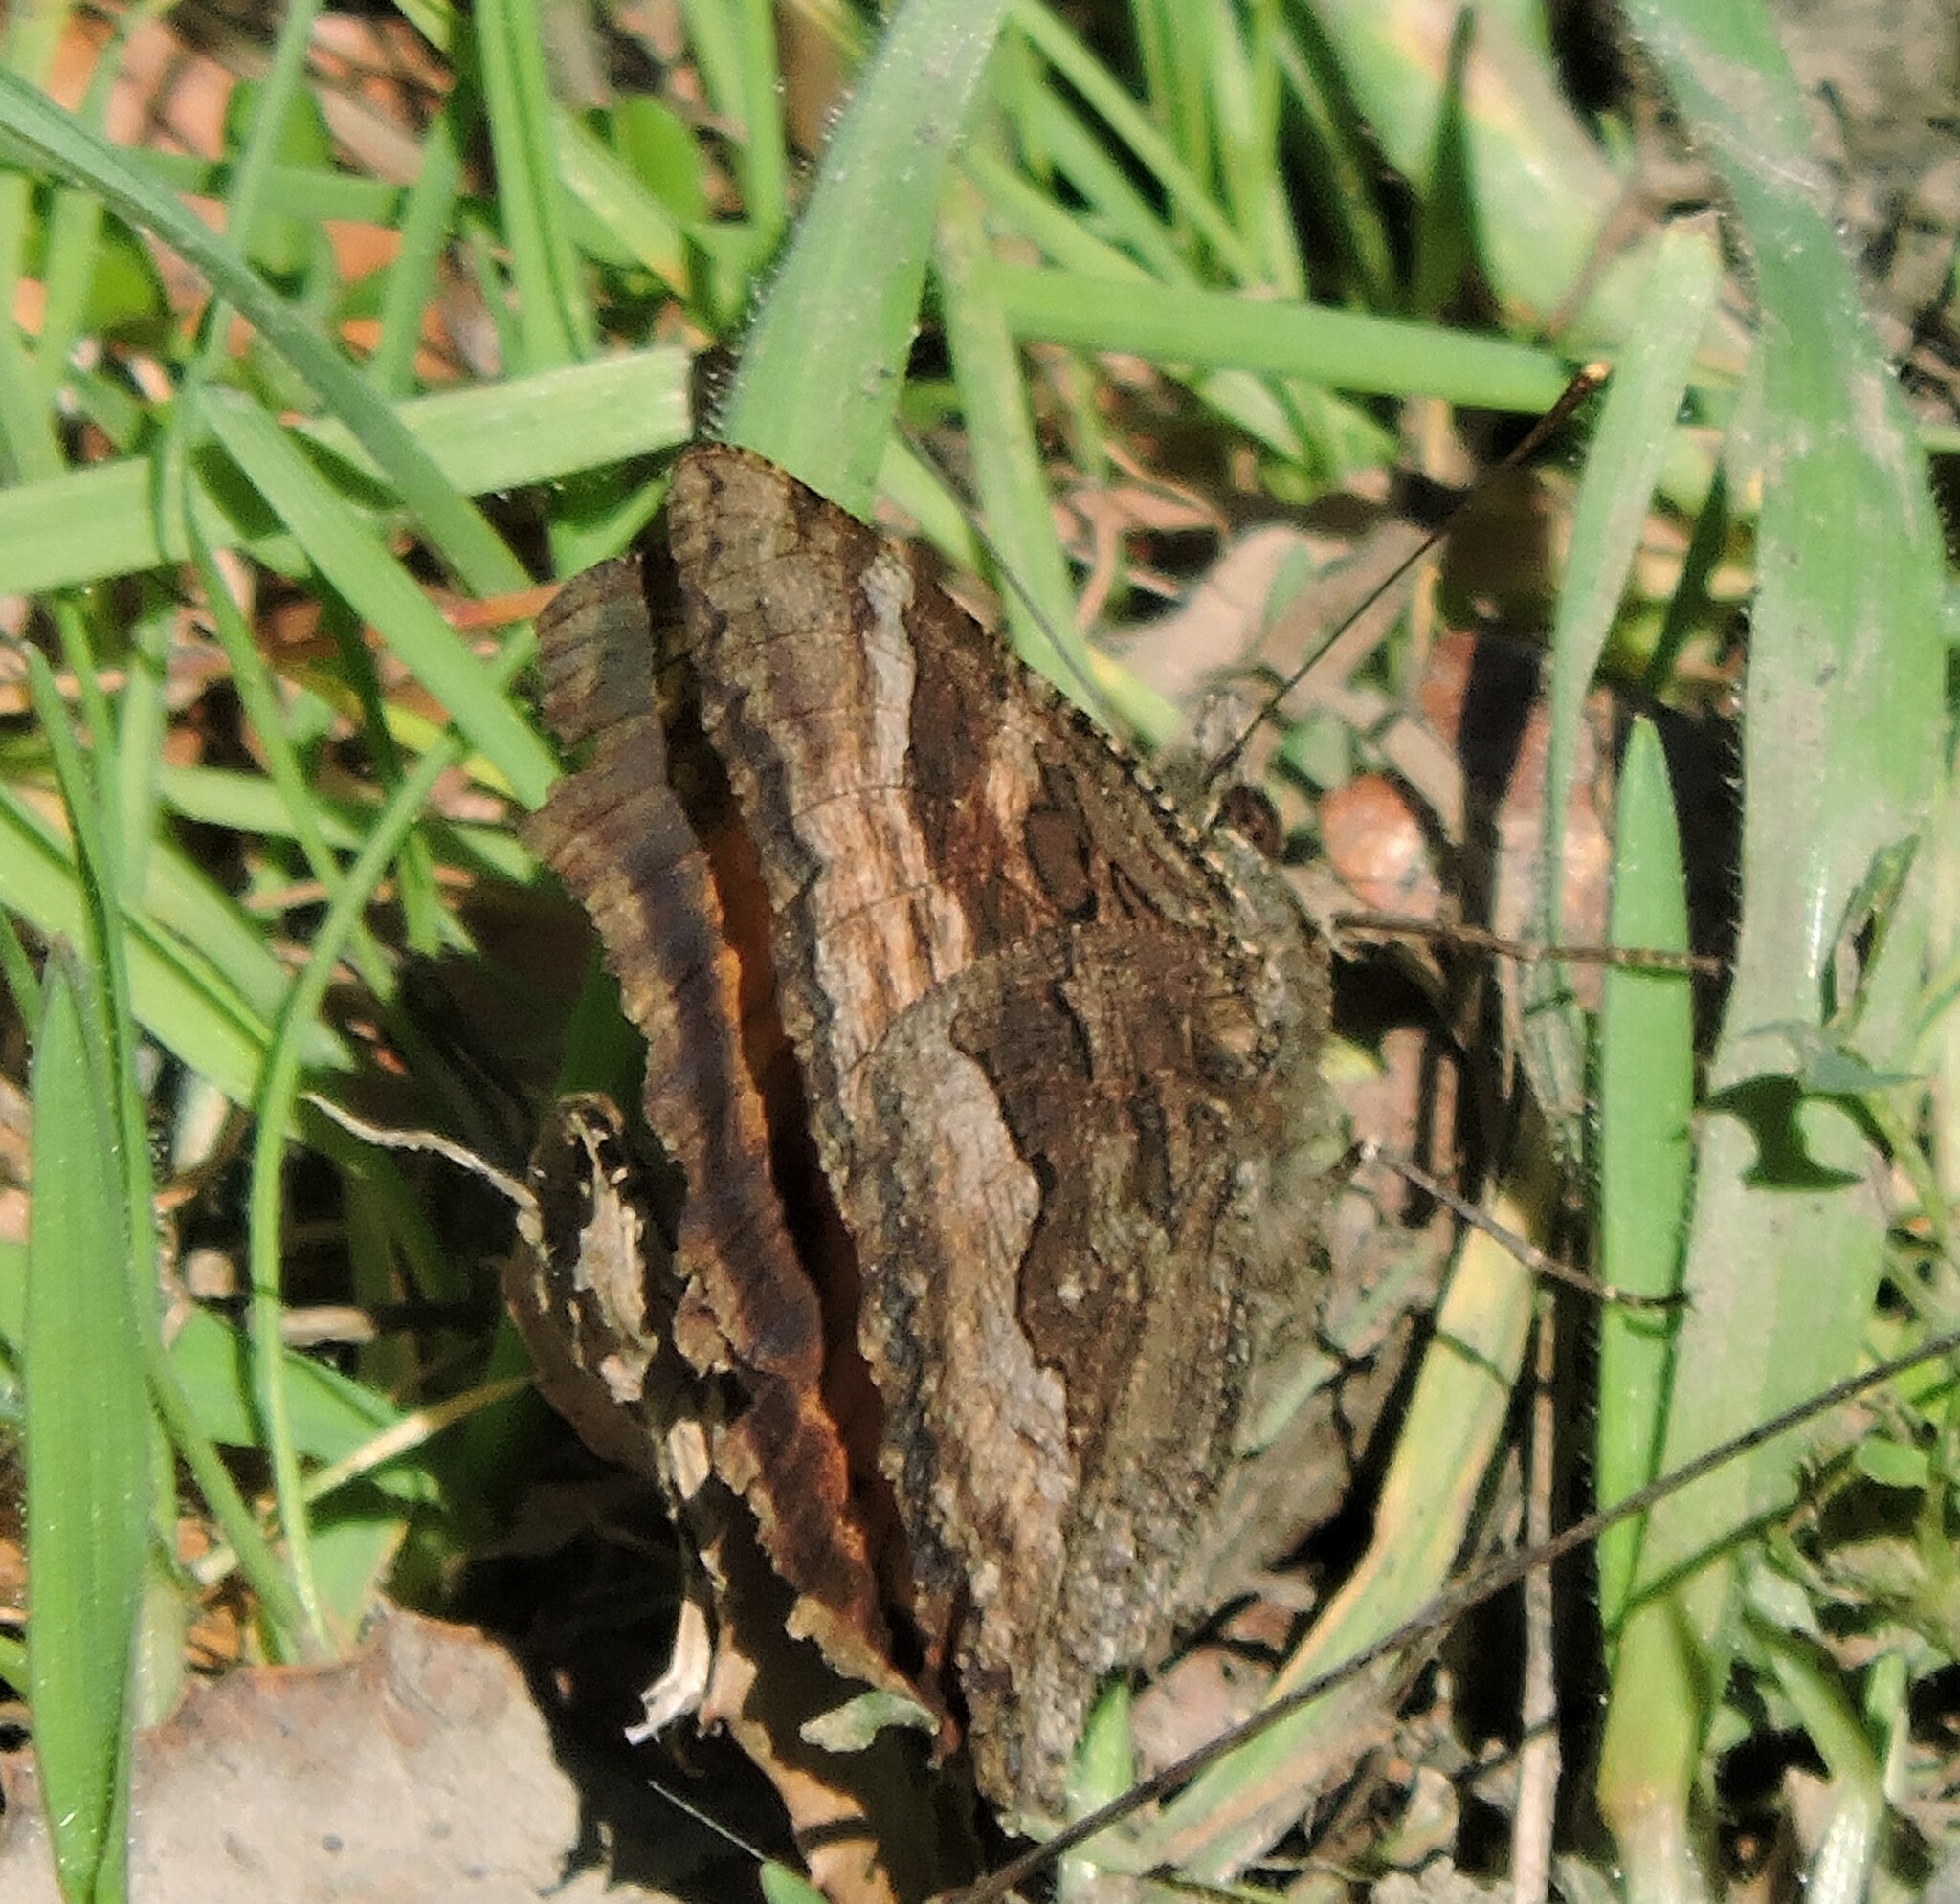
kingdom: Animalia
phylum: Arthropoda
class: Insecta
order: Lepidoptera
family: Nymphalidae
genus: Nymphalis
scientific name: Nymphalis californica
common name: California tortoiseshell
